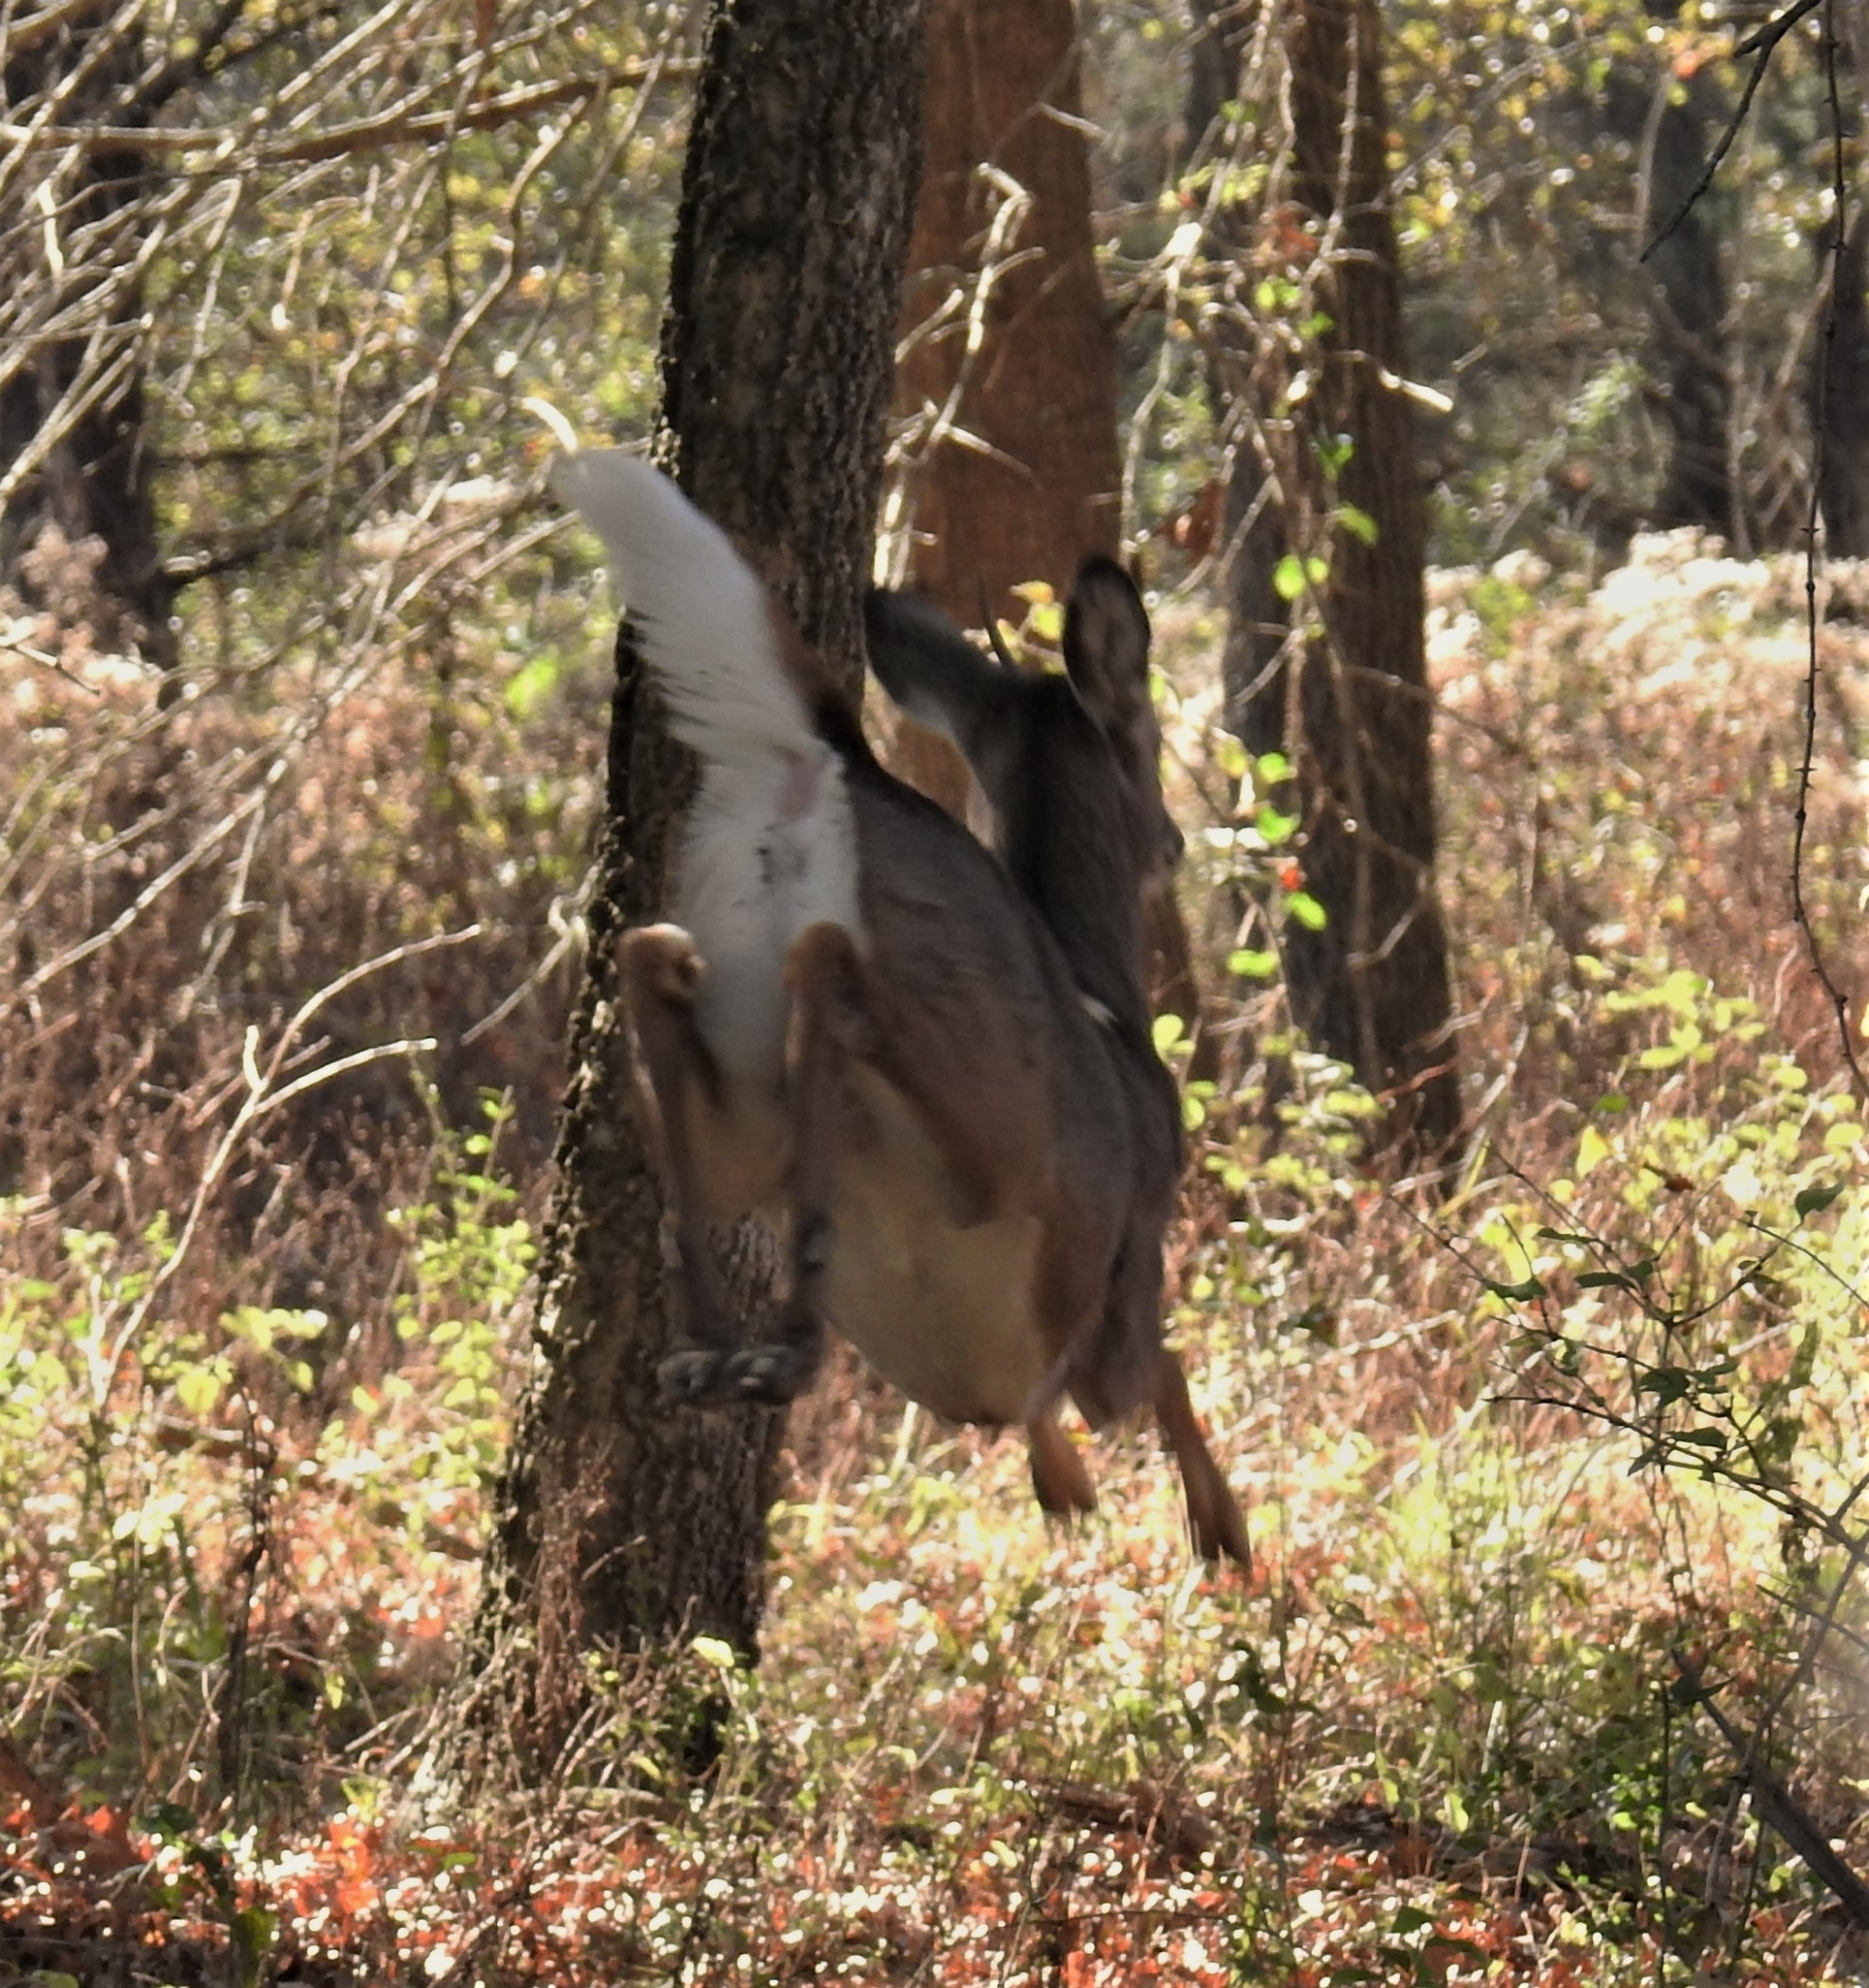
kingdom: Animalia
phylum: Chordata
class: Mammalia
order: Artiodactyla
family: Cervidae
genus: Odocoileus
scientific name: Odocoileus virginianus
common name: White-tailed deer
